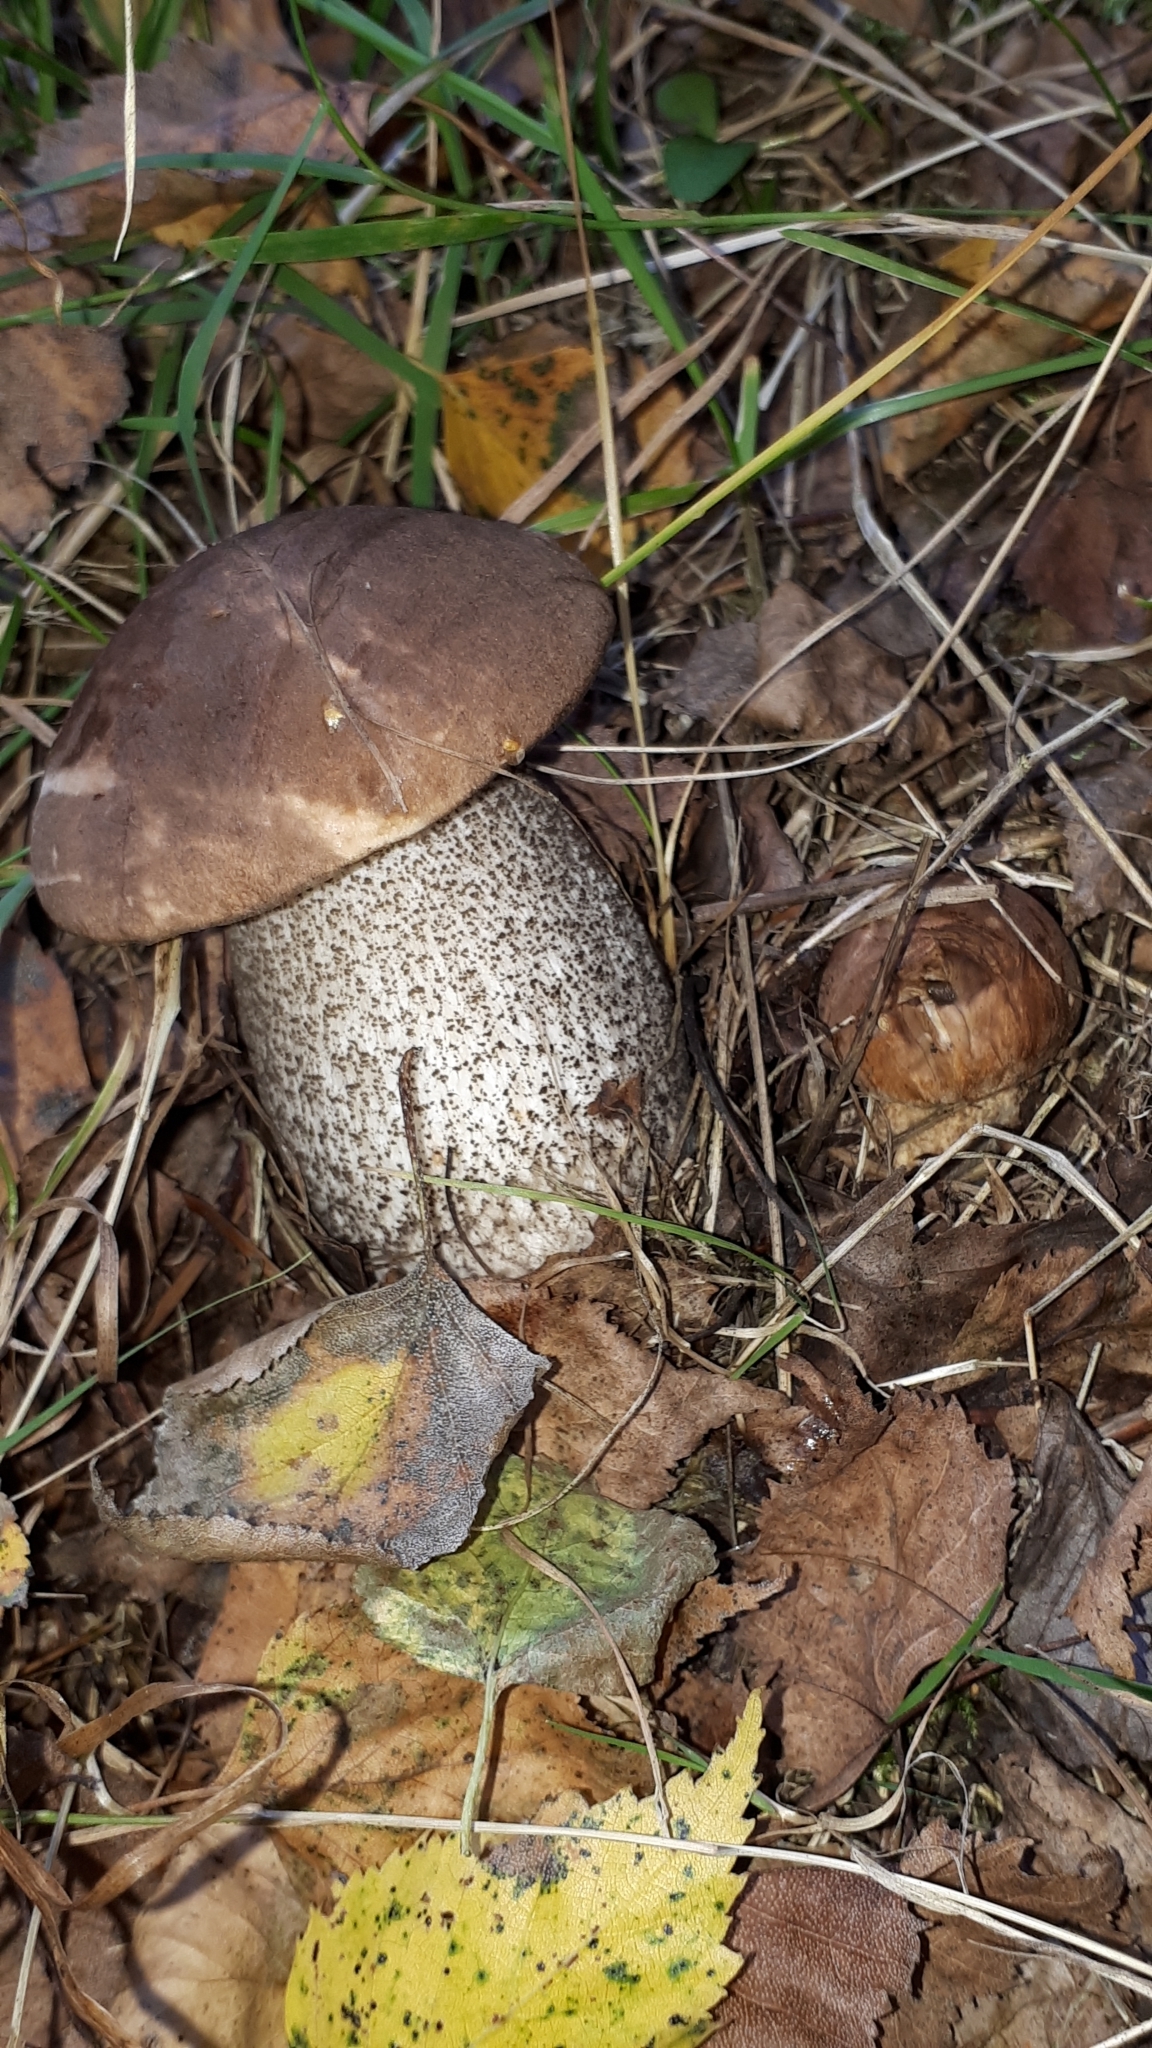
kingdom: Fungi
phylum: Basidiomycota
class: Agaricomycetes
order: Boletales
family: Boletaceae
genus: Leccinum
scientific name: Leccinum scabrum
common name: Blushing bolete
